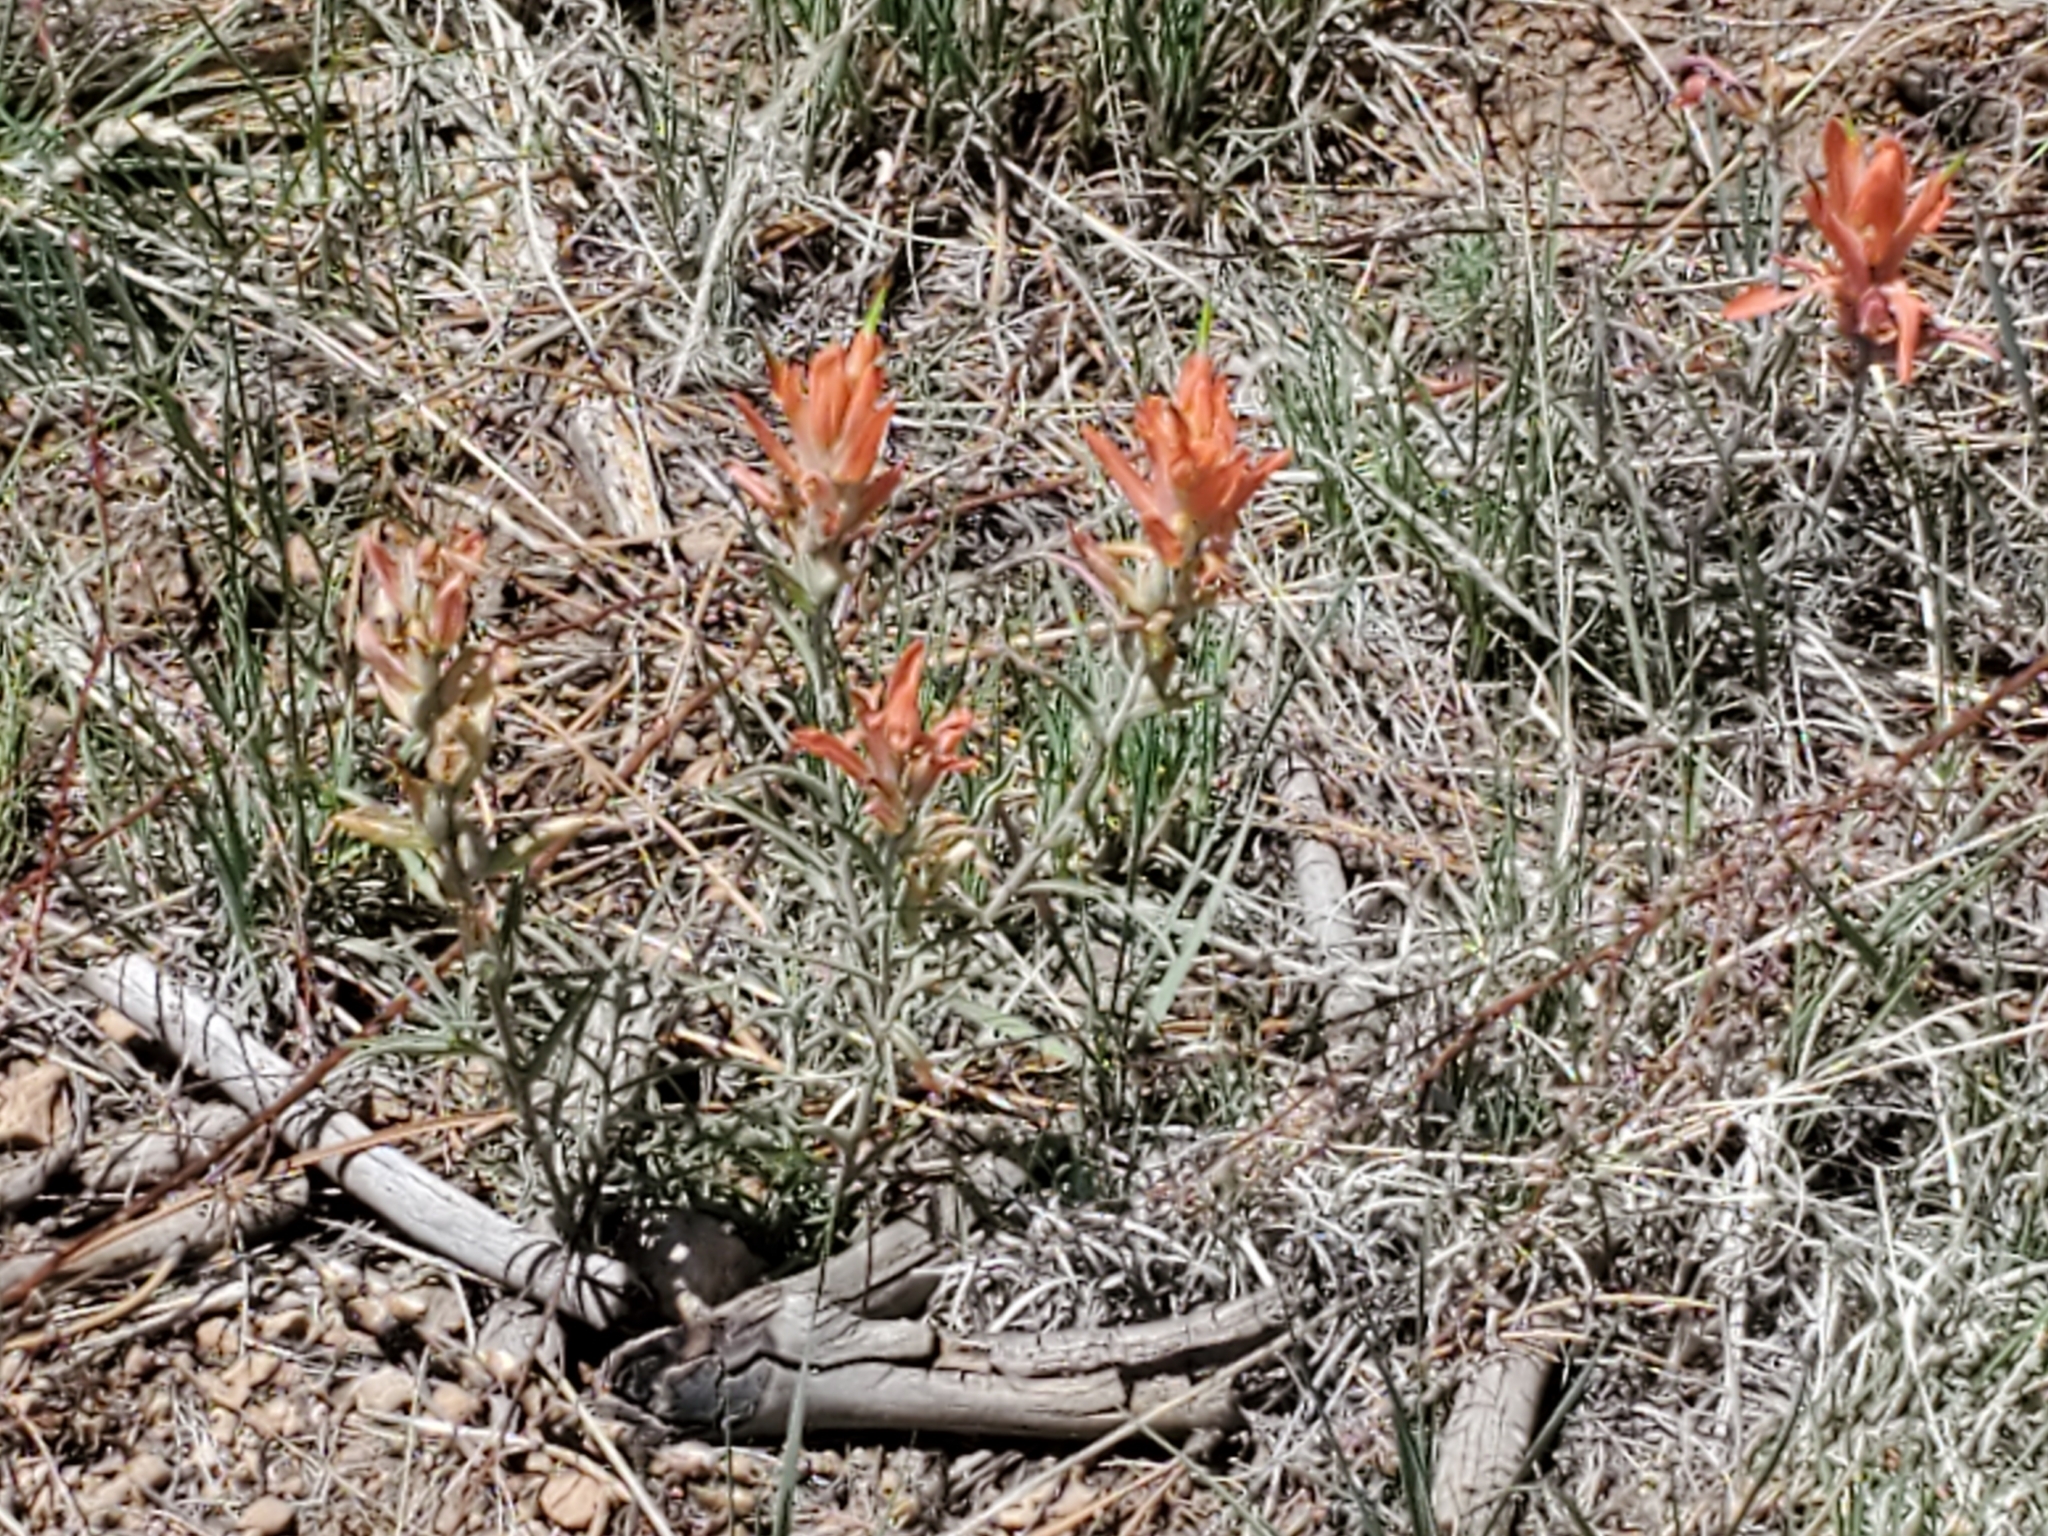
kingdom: Plantae
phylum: Tracheophyta
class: Magnoliopsida
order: Lamiales
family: Orobanchaceae
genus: Castilleja
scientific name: Castilleja integra
